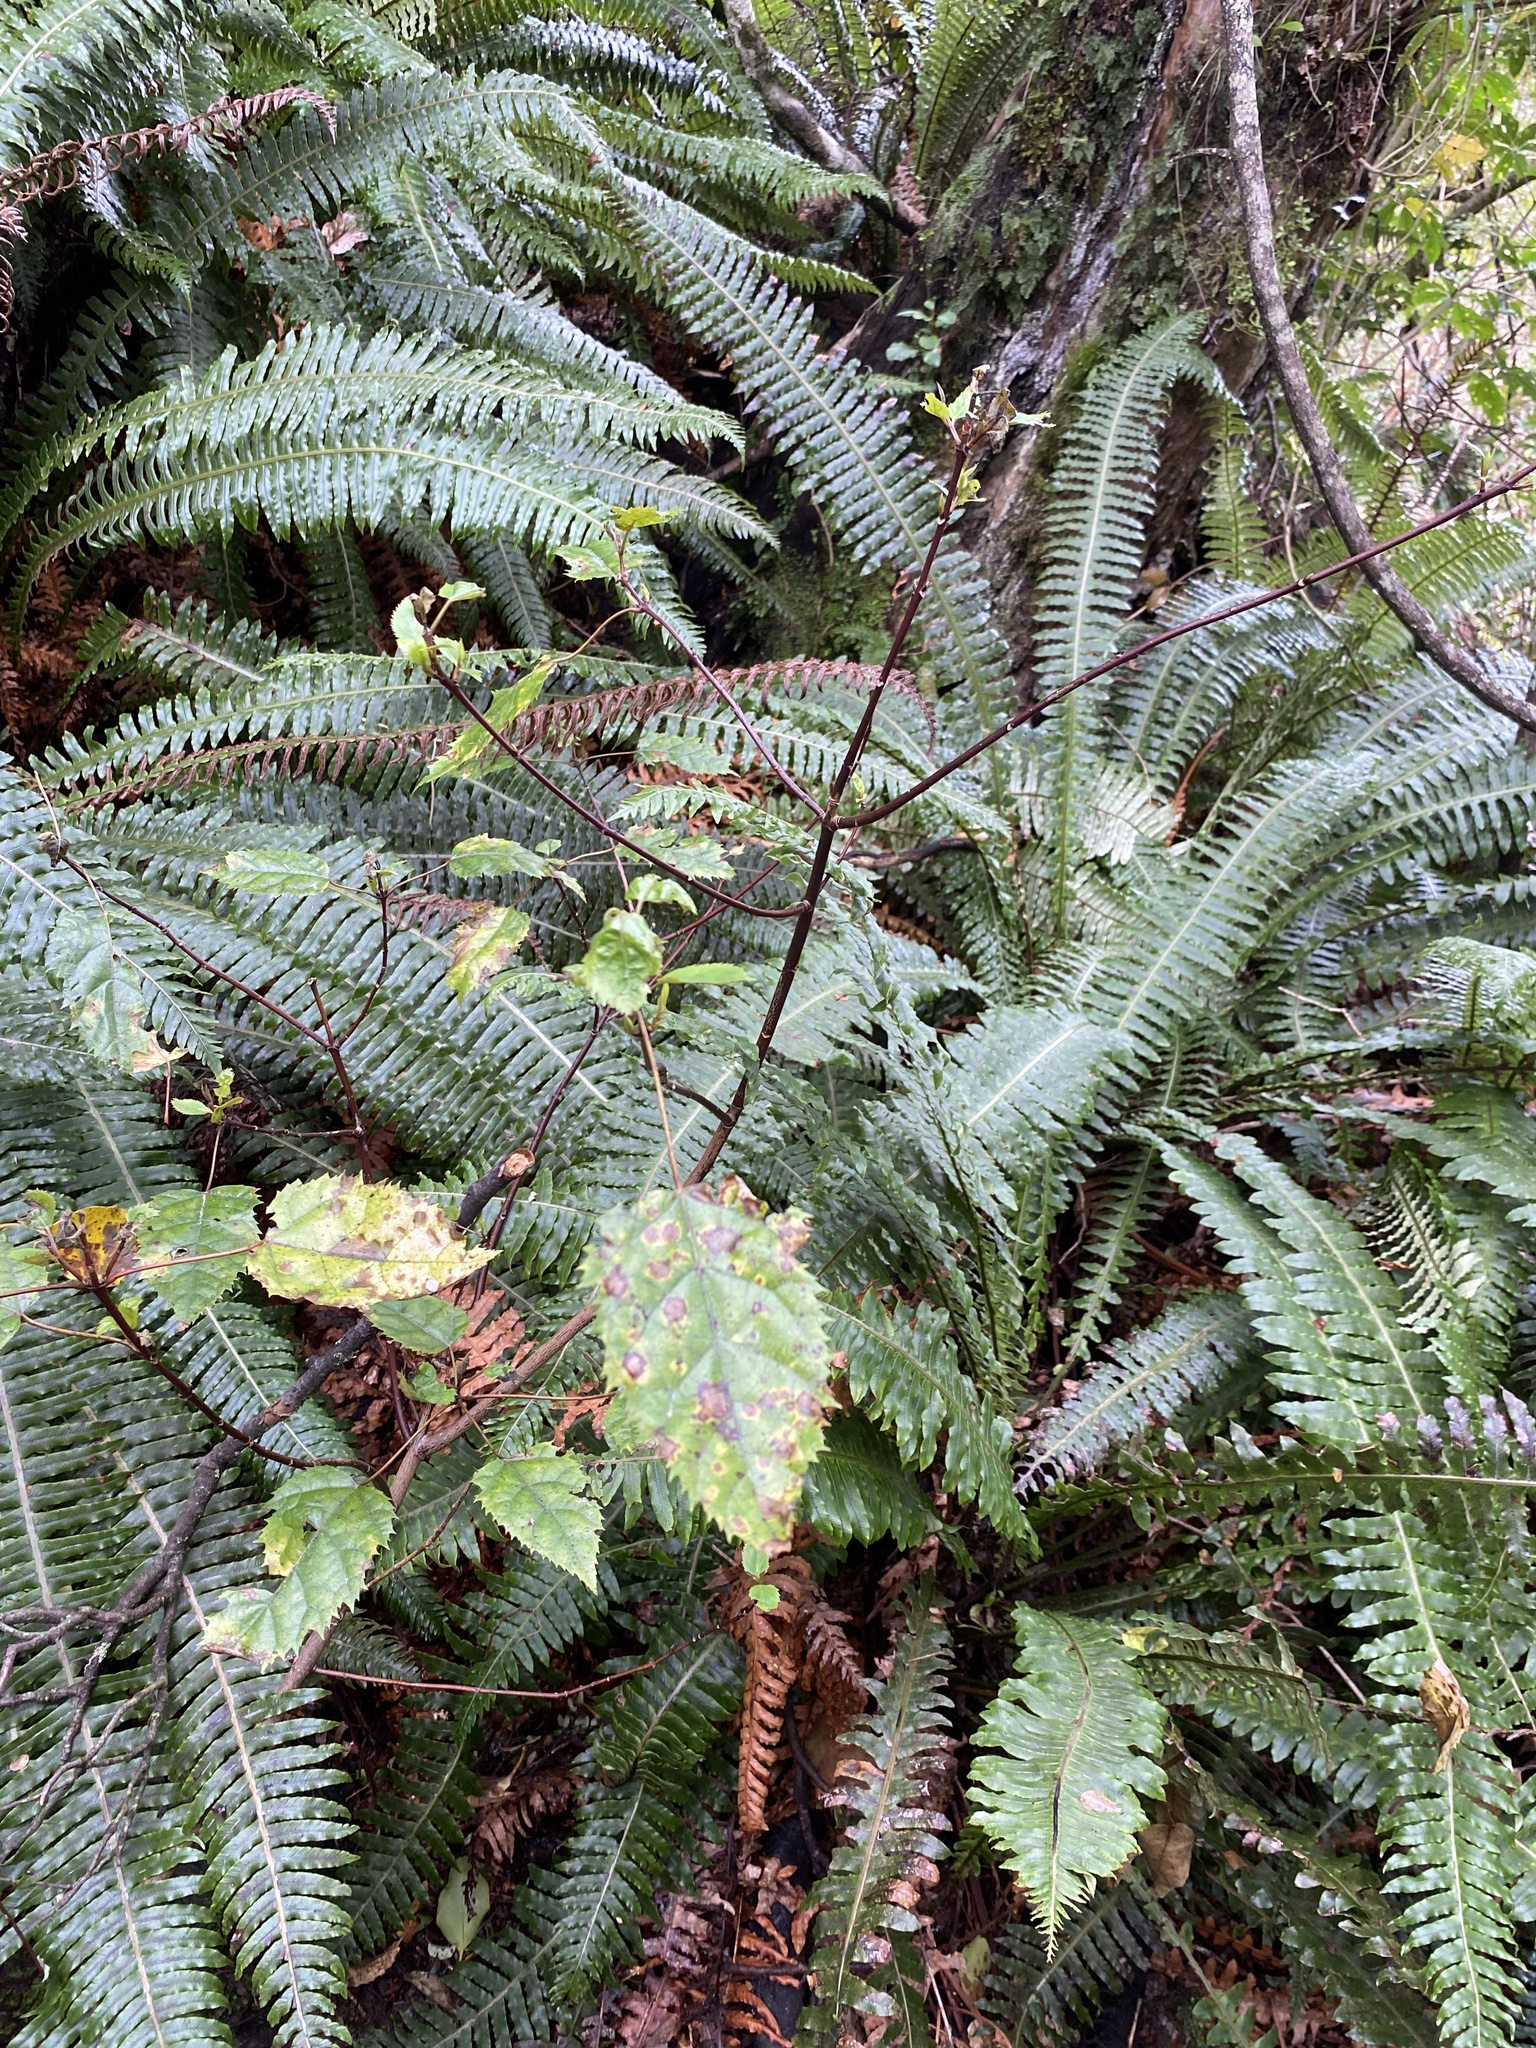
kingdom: Plantae
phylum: Tracheophyta
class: Magnoliopsida
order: Oxalidales
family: Elaeocarpaceae
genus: Aristotelia
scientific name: Aristotelia serrata
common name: New zealand wineberry
